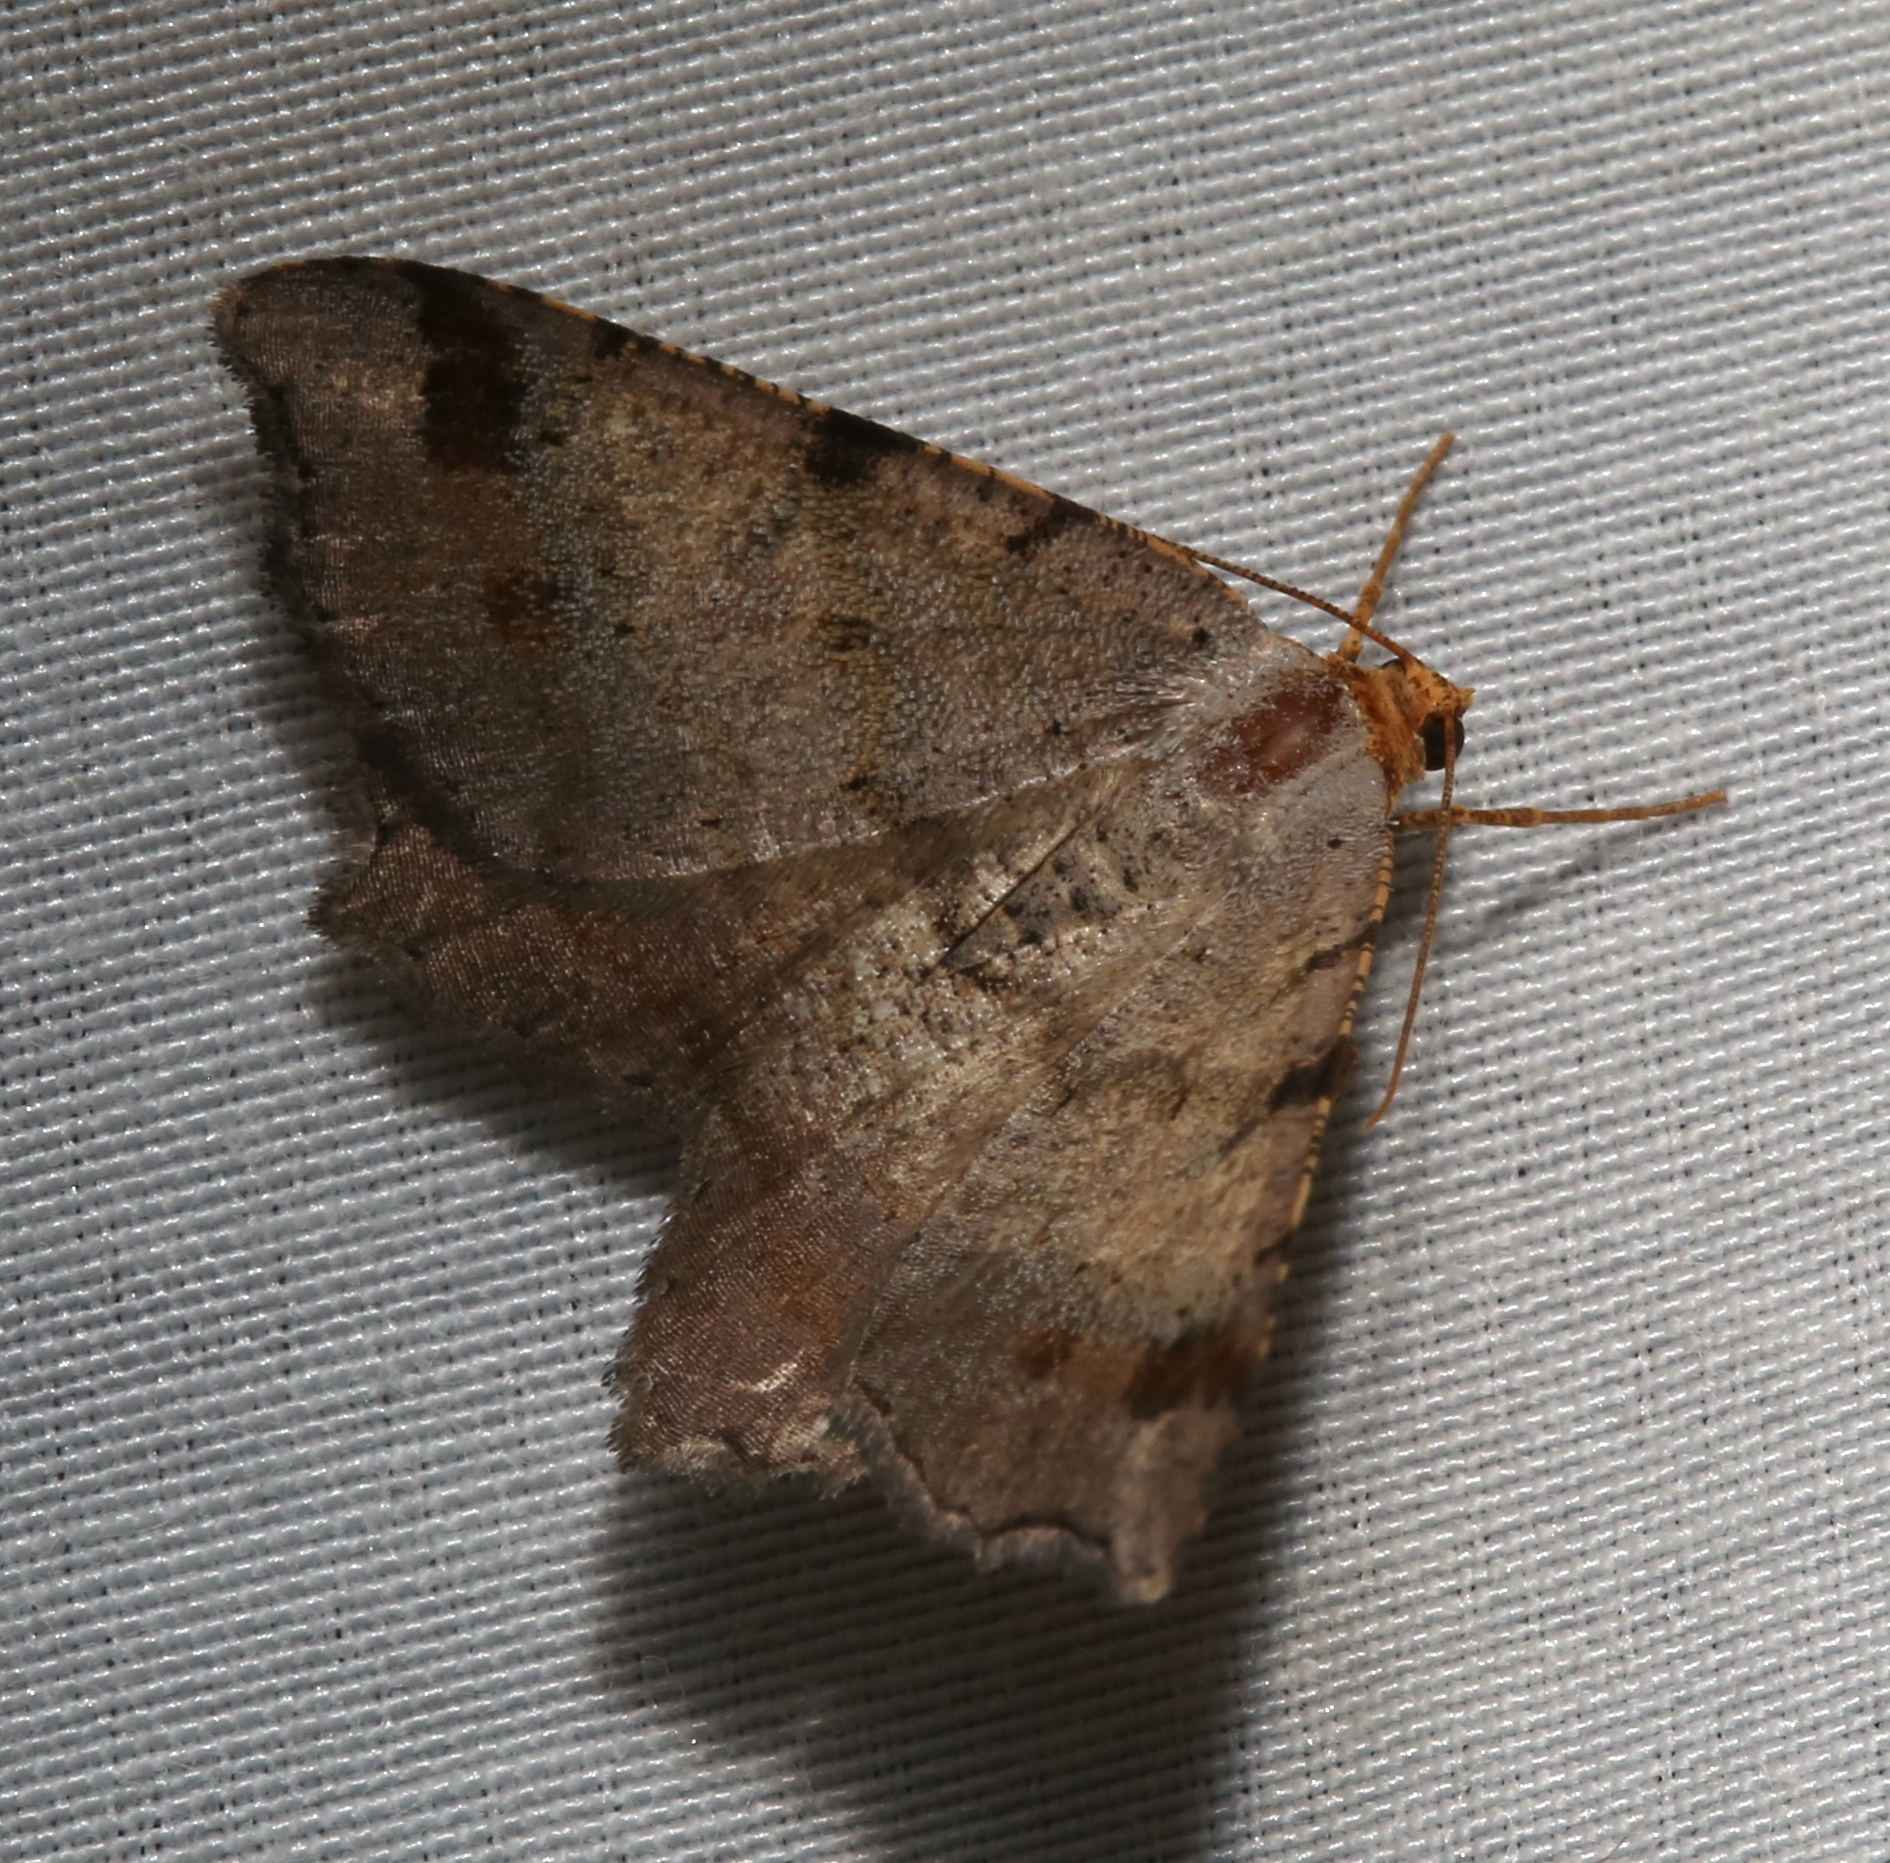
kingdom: Animalia
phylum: Arthropoda
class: Insecta
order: Lepidoptera
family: Geometridae
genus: Macaria
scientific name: Macaria bicolorata
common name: Dingy angle
